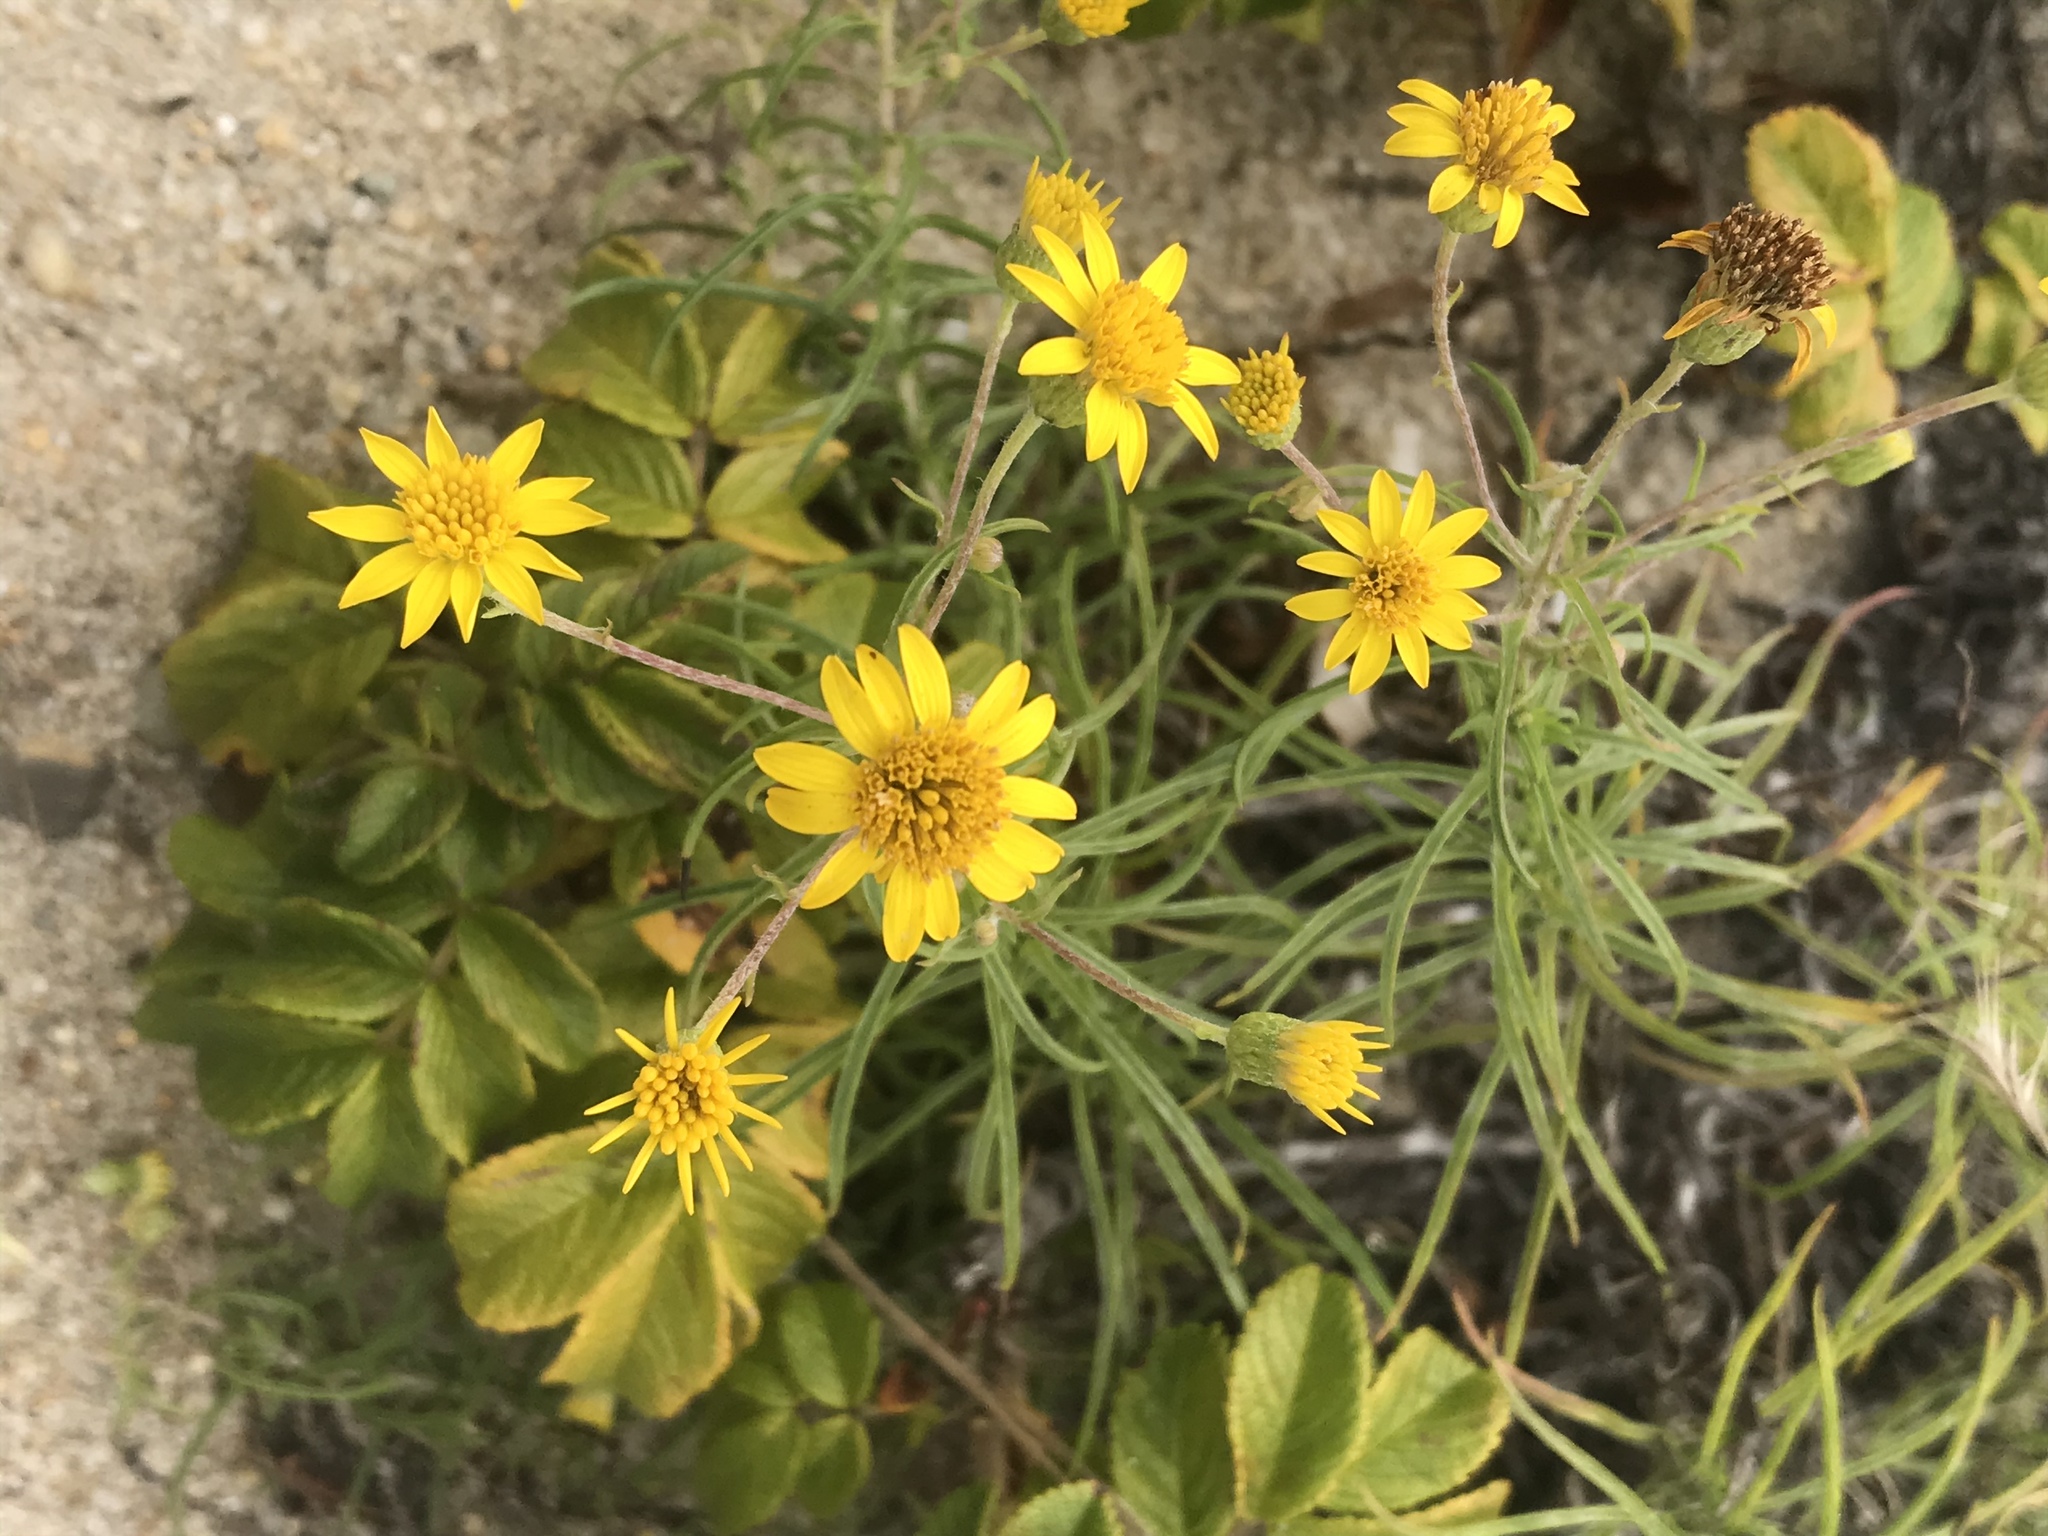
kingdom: Plantae
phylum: Tracheophyta
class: Magnoliopsida
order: Asterales
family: Asteraceae
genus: Pityopsis
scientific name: Pityopsis falcata
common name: Sickle-leaved goldenaster
